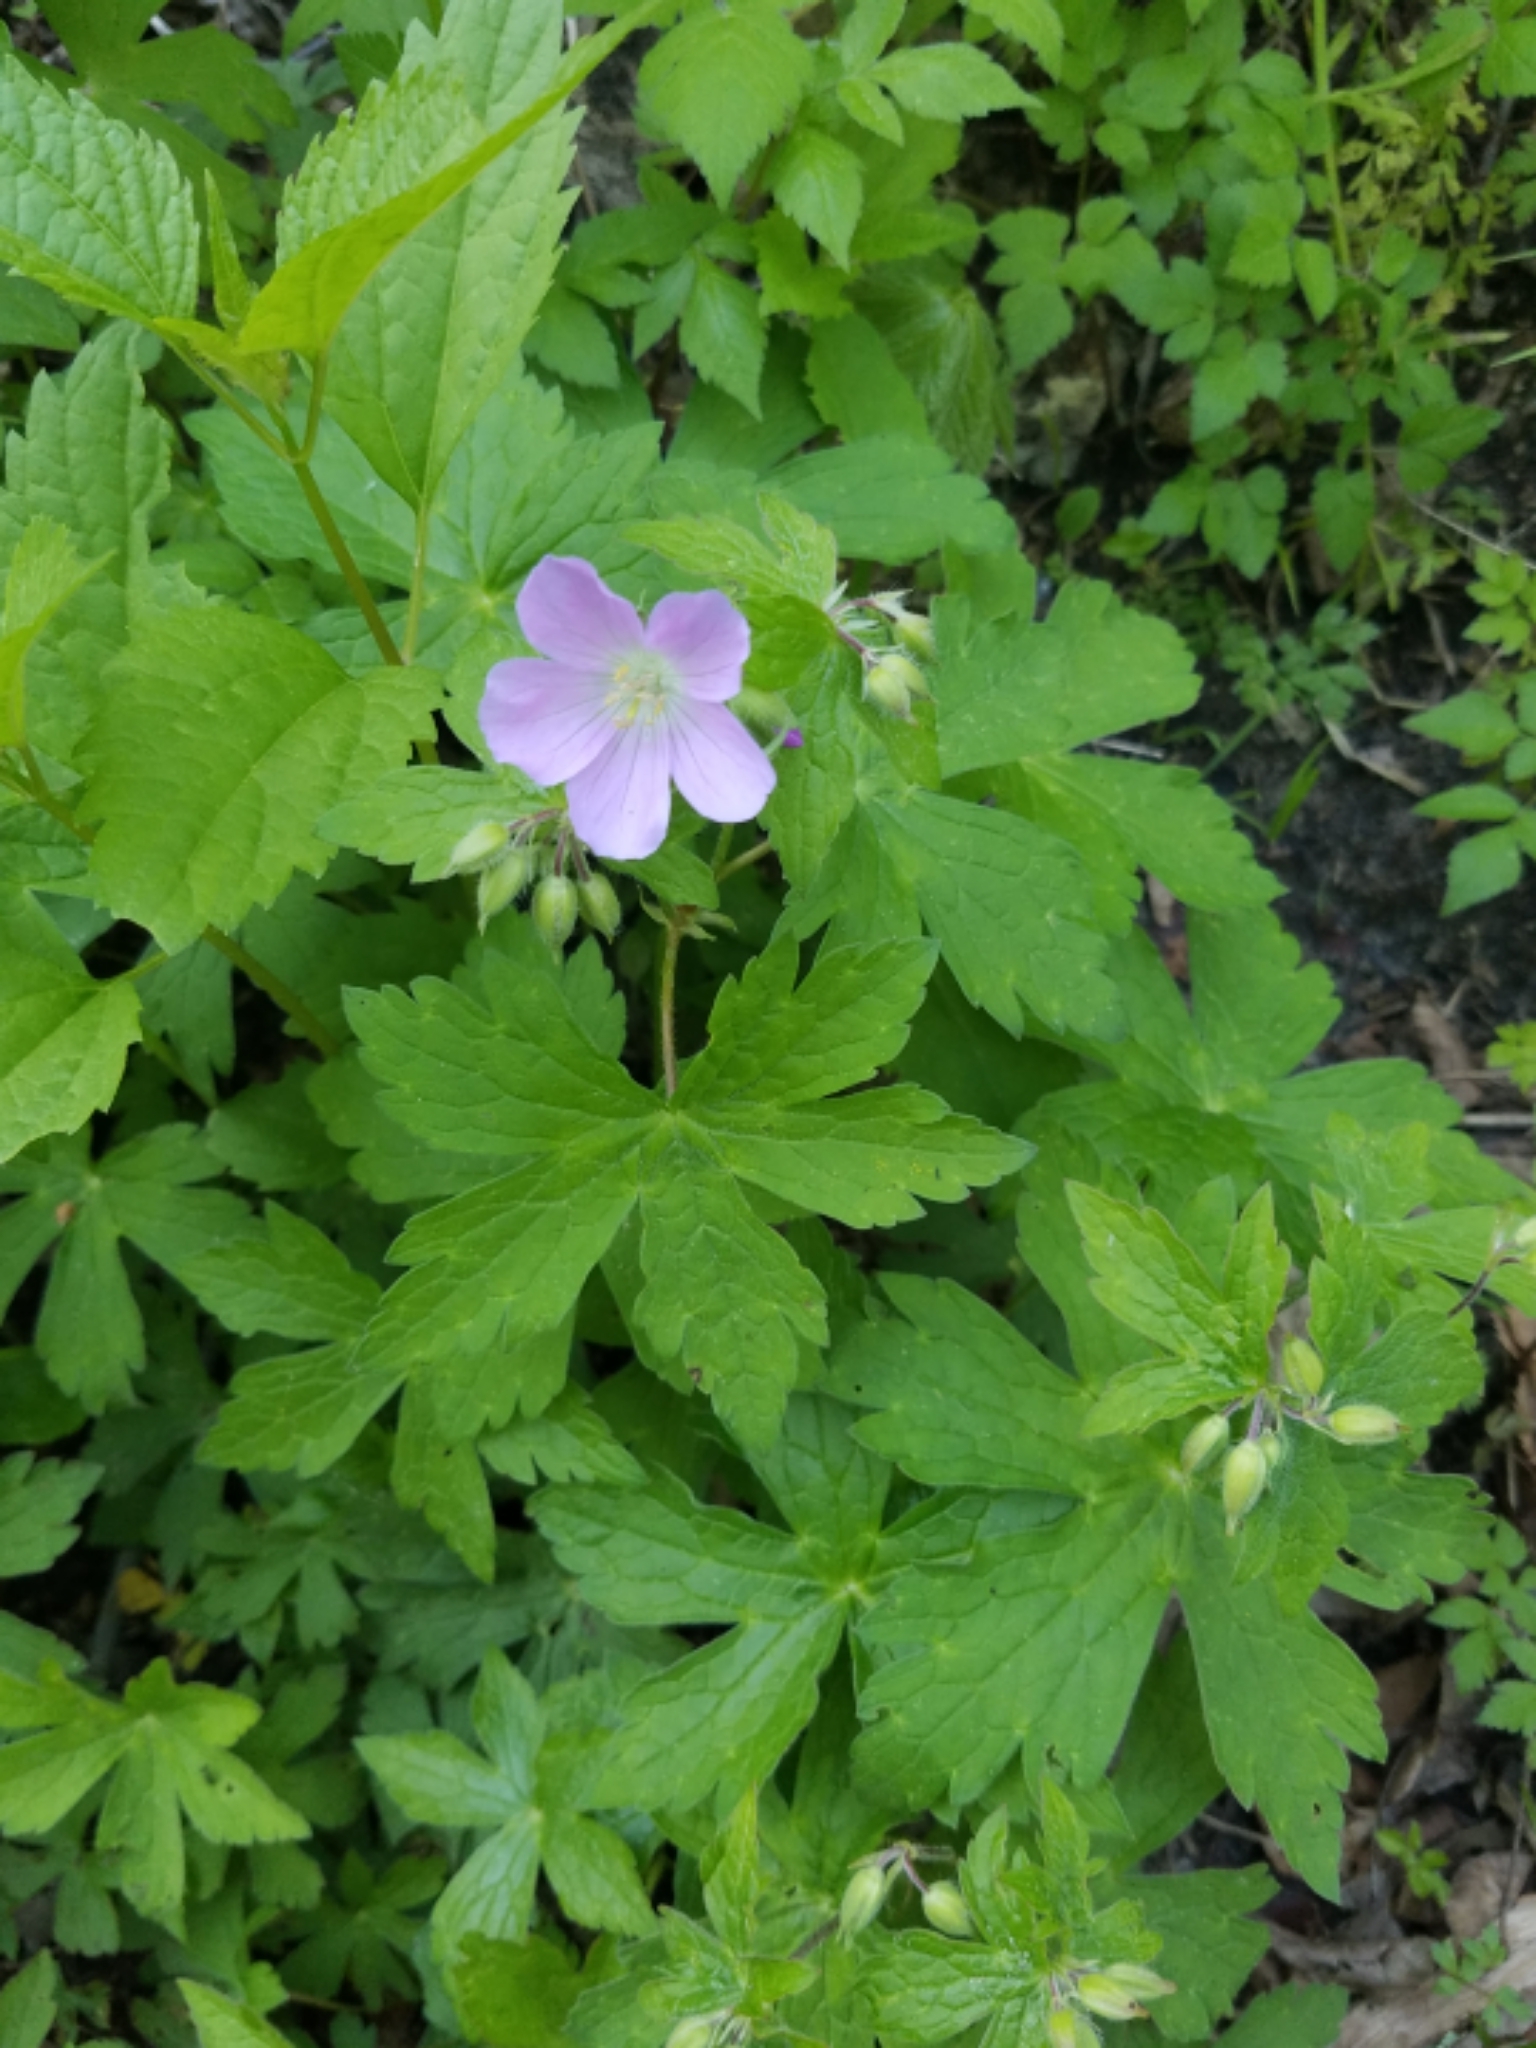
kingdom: Plantae
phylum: Tracheophyta
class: Magnoliopsida
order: Geraniales
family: Geraniaceae
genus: Geranium
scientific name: Geranium maculatum
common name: Spotted geranium
